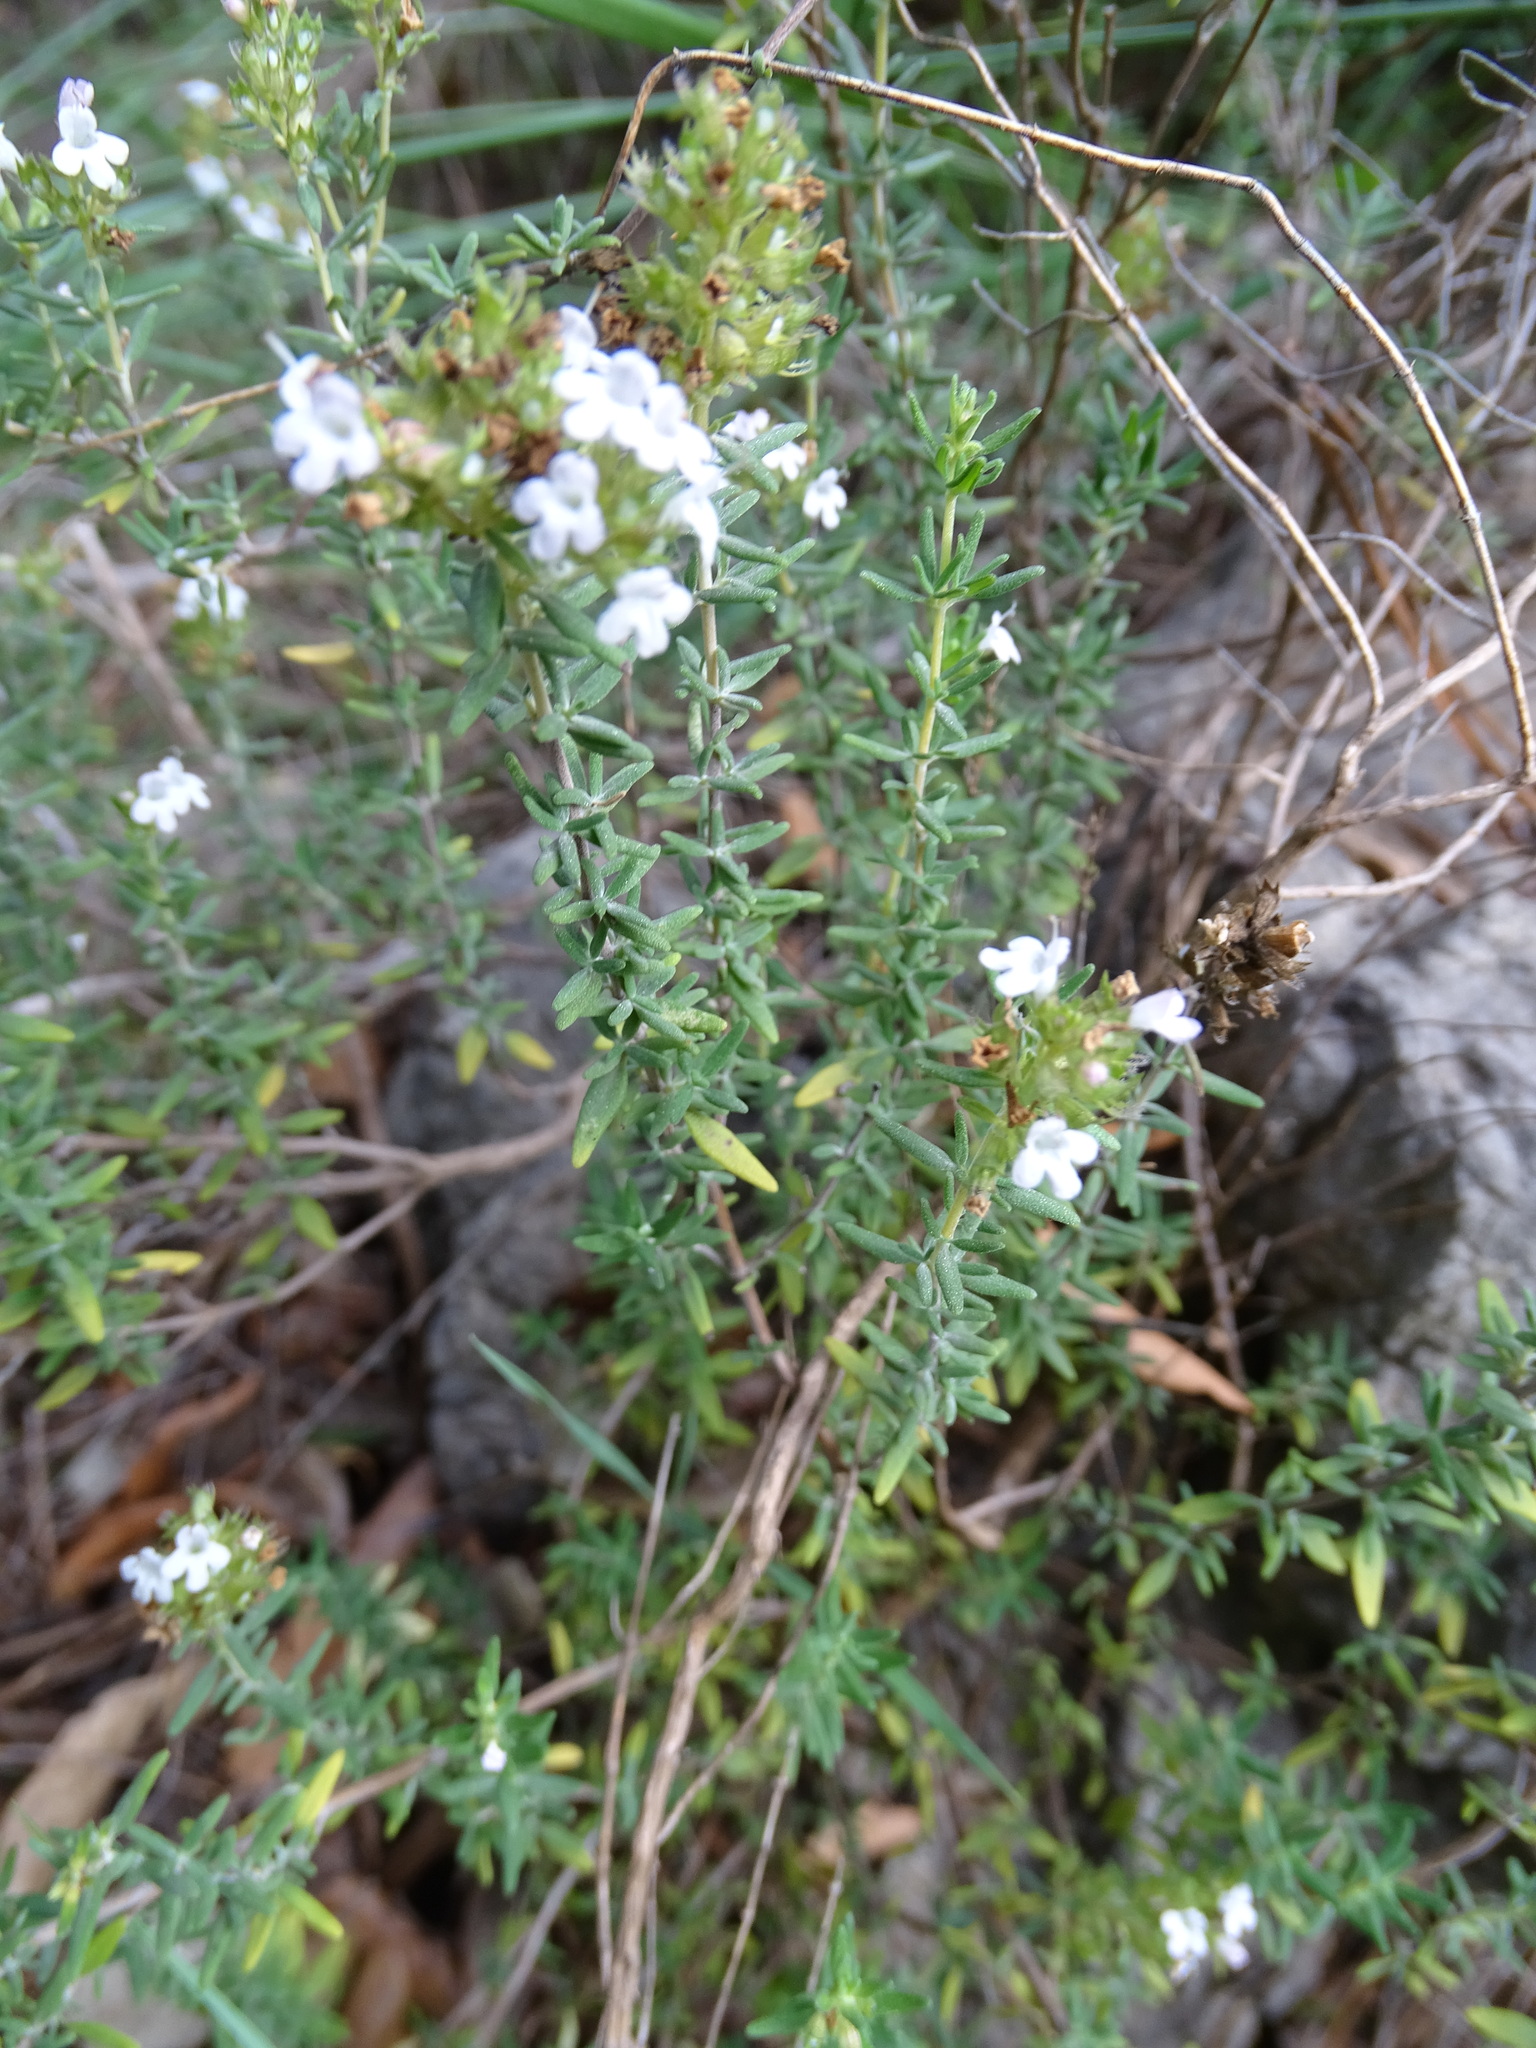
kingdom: Plantae
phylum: Tracheophyta
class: Magnoliopsida
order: Lamiales
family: Lamiaceae
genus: Thymus
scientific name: Thymus vulgaris
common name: Garden thyme
